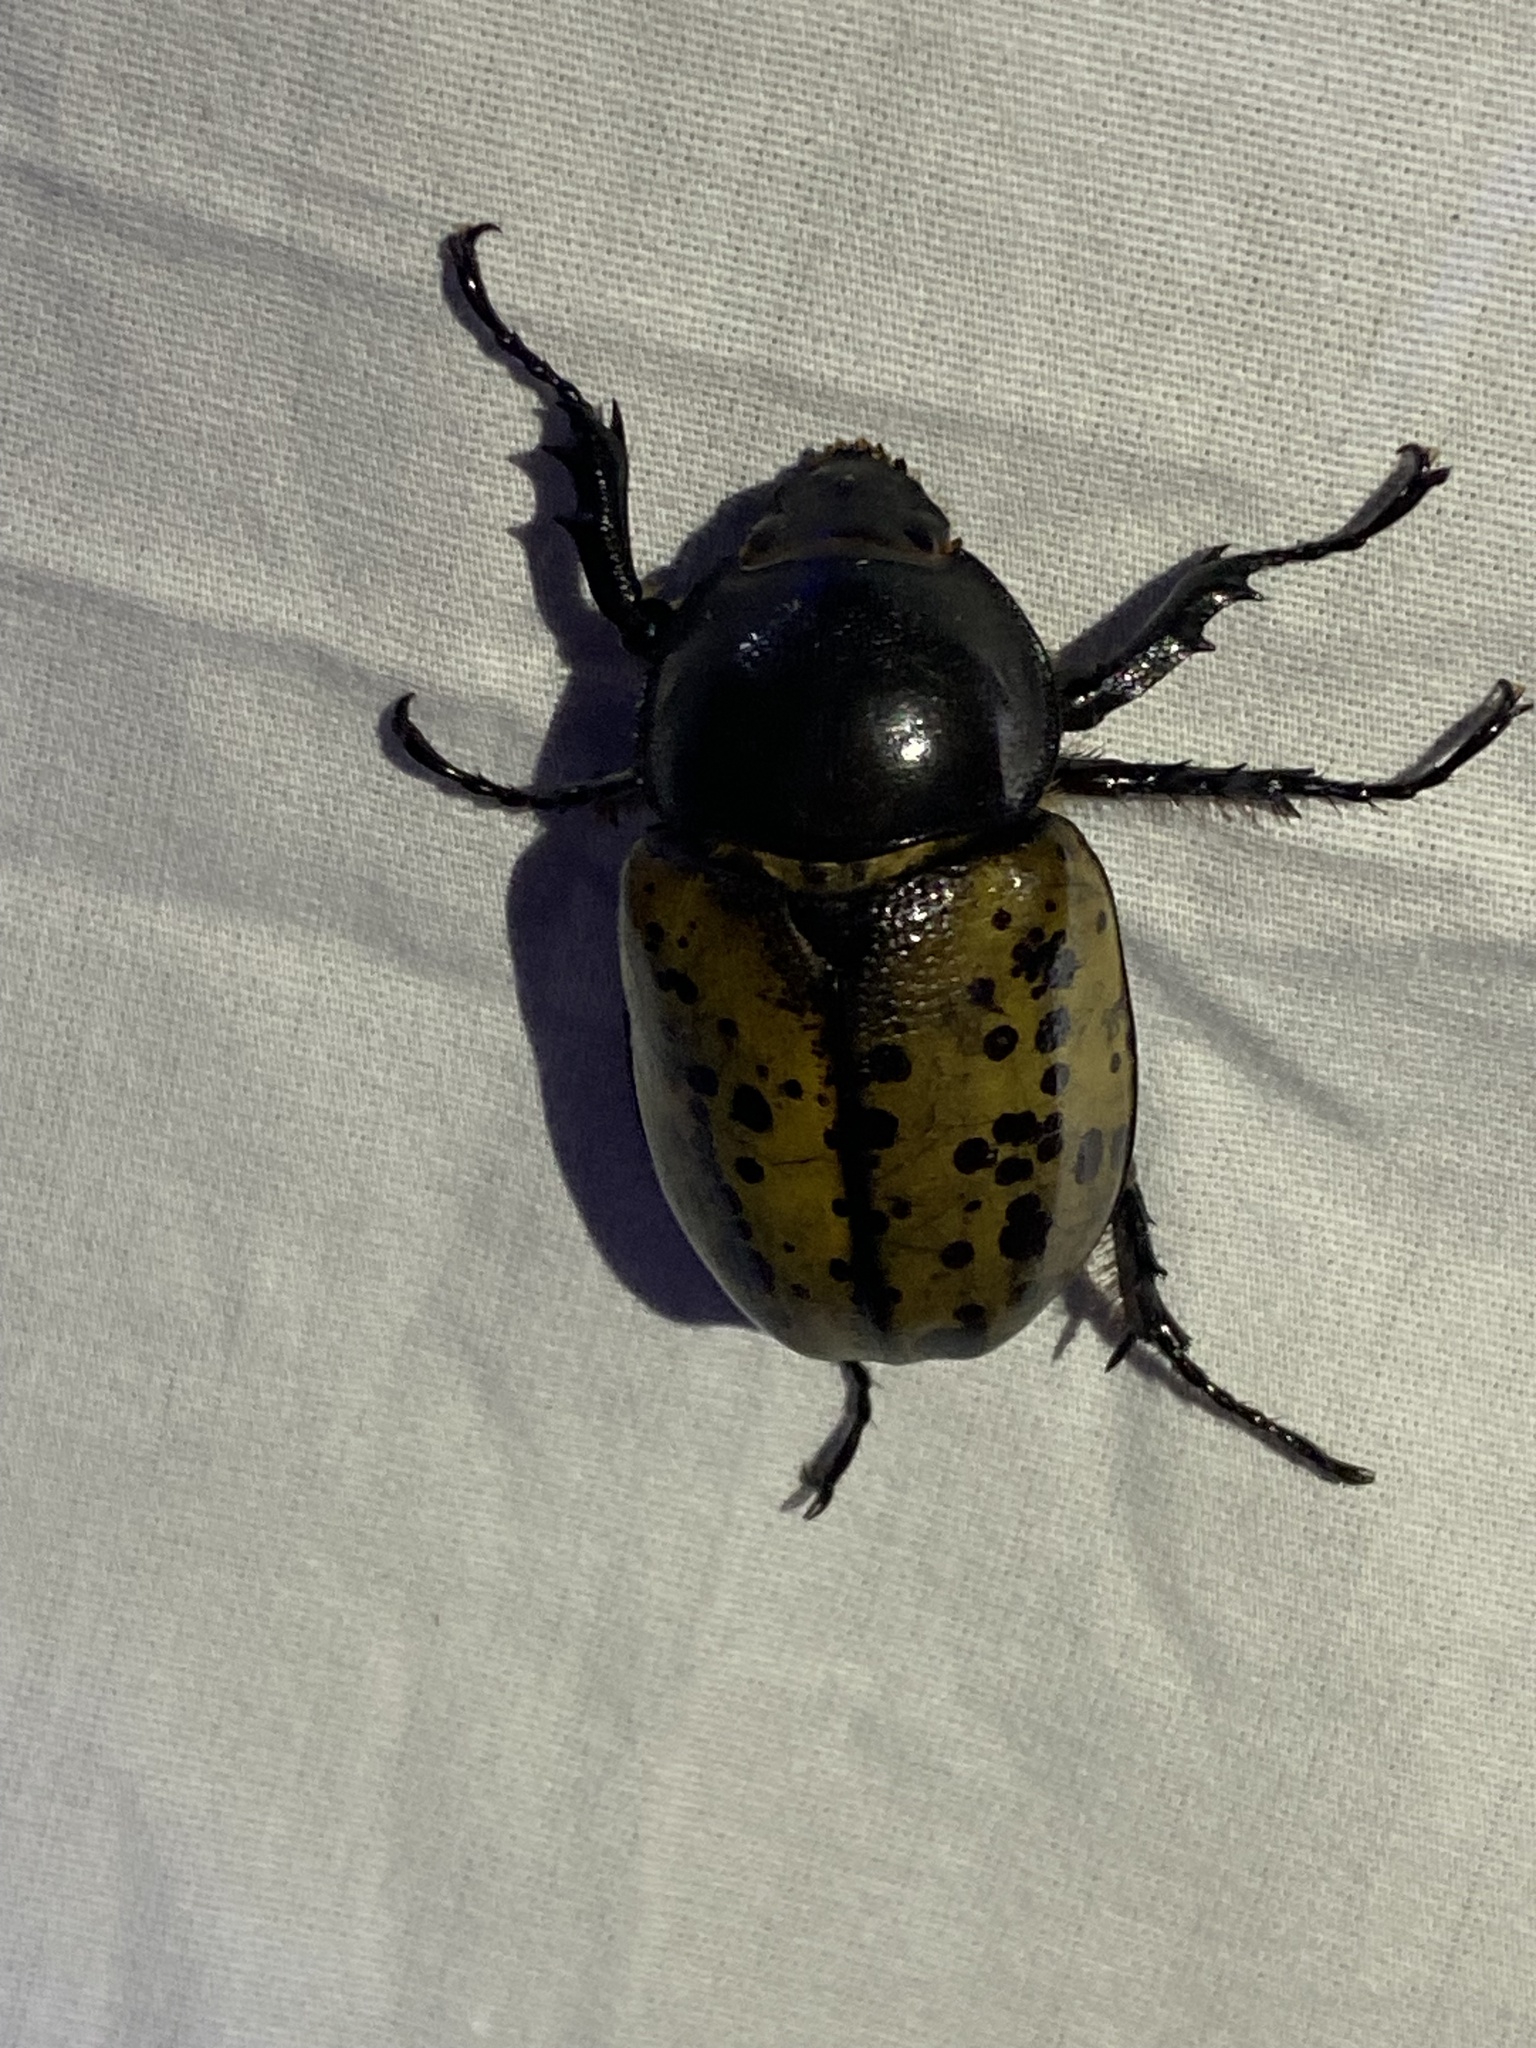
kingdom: Animalia
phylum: Arthropoda
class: Insecta
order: Coleoptera
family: Scarabaeidae
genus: Dynastes
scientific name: Dynastes tityus
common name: Eastern hercules beetle
